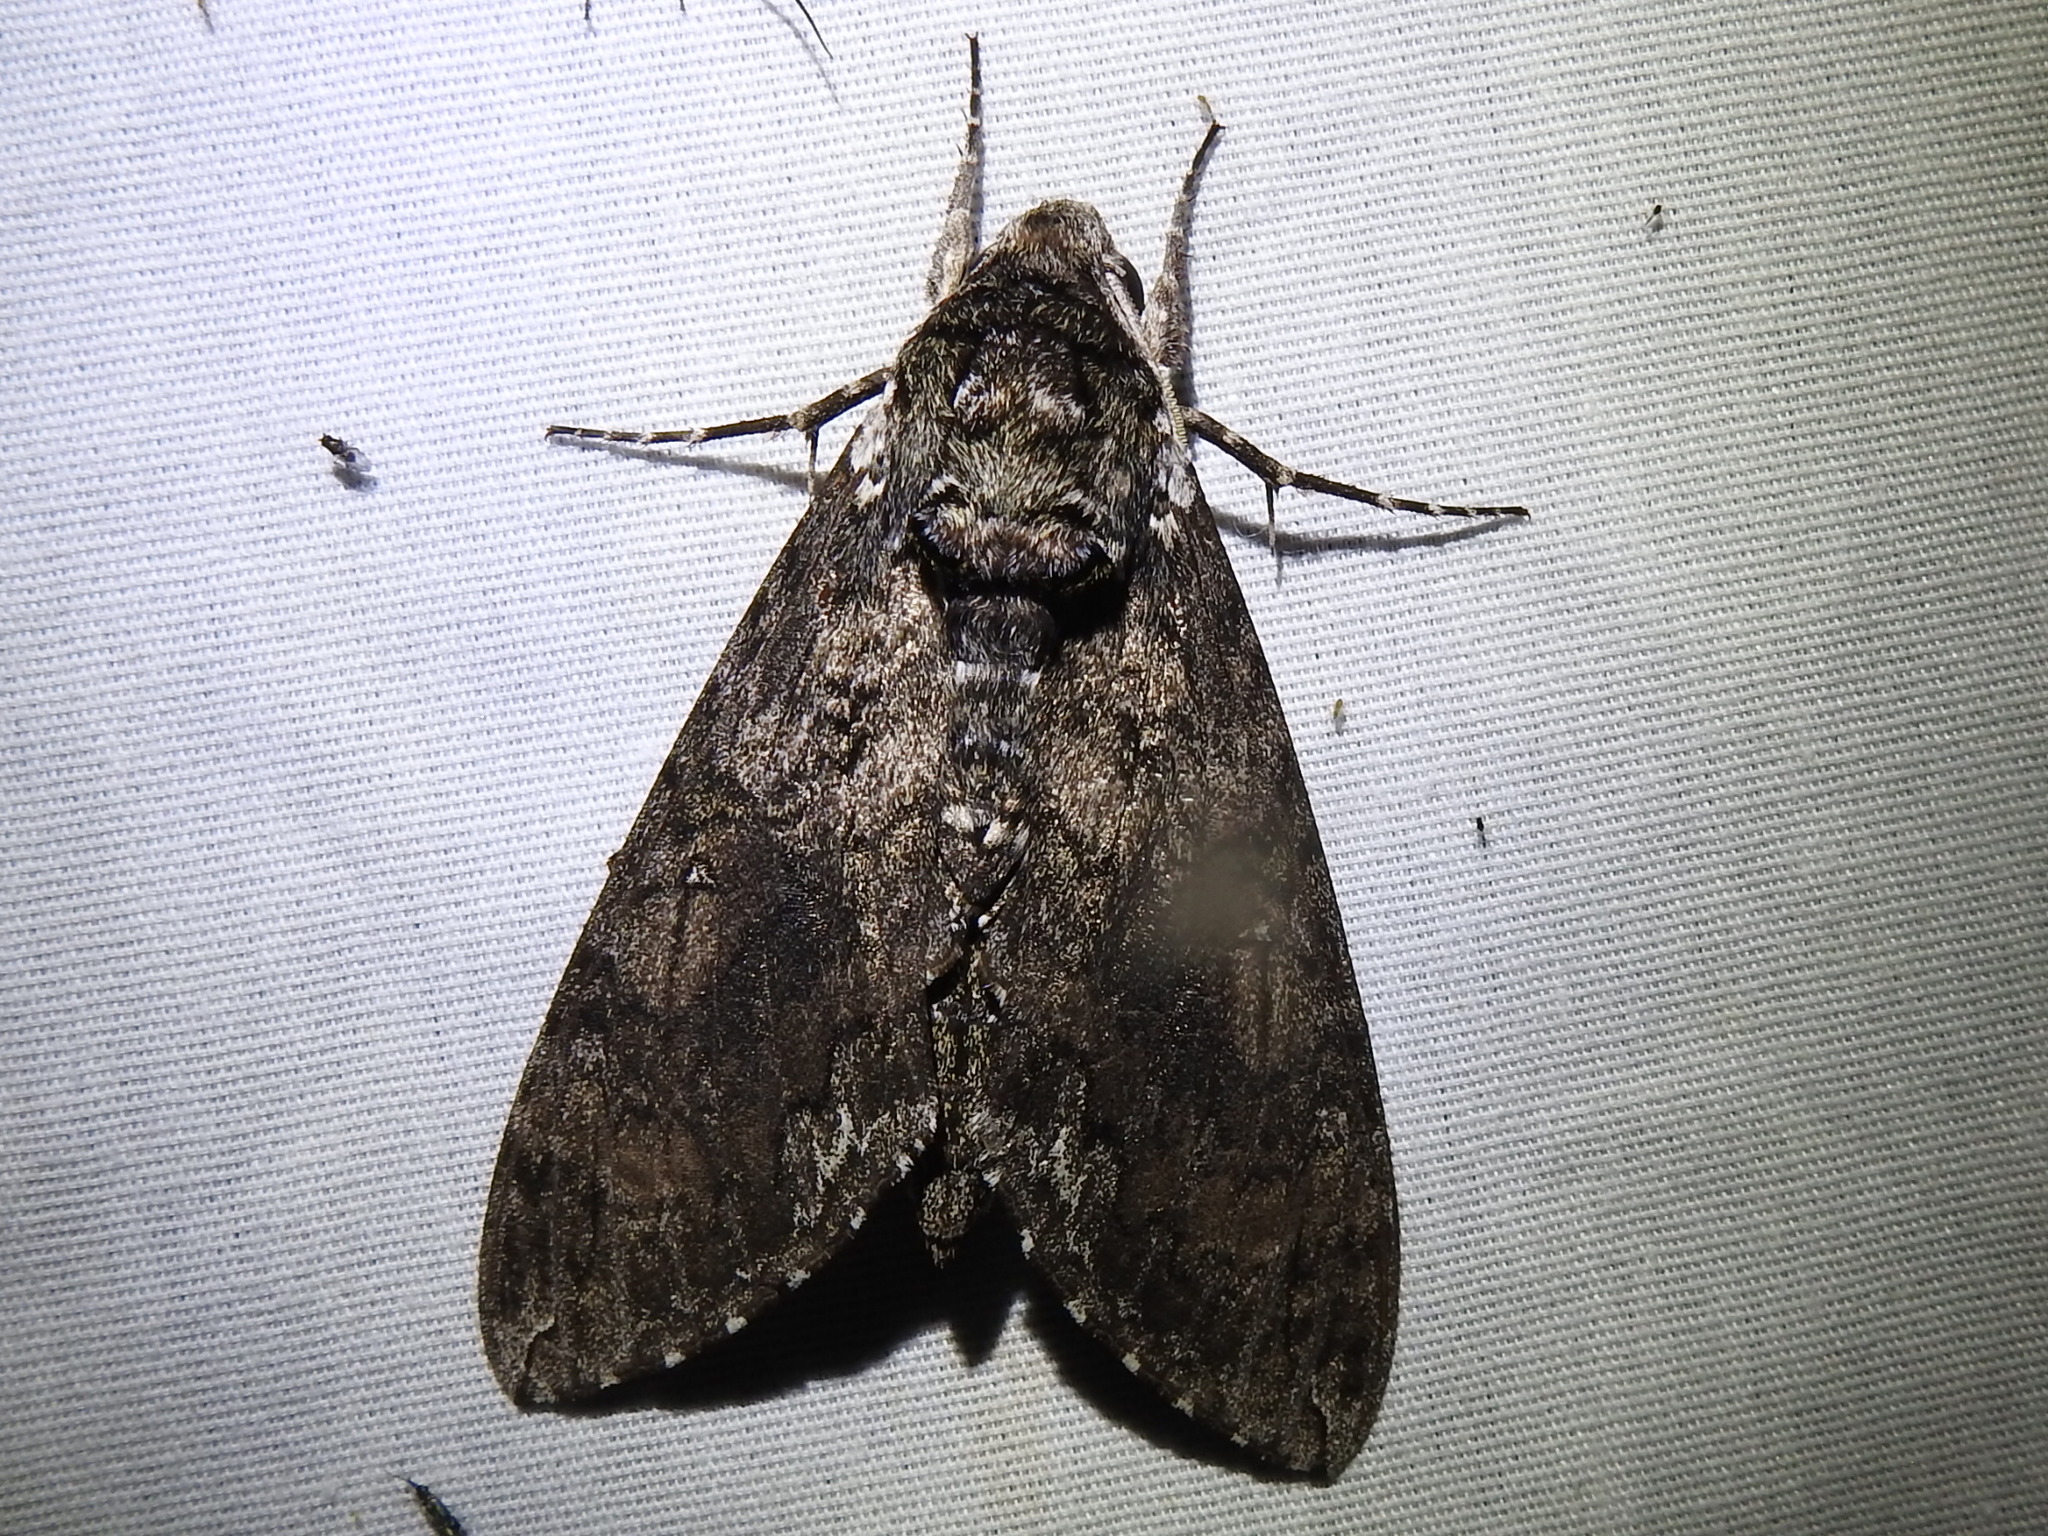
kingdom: Animalia
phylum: Arthropoda
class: Insecta
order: Lepidoptera
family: Sphingidae
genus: Manduca
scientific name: Manduca sexta
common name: Carolina sphinx
